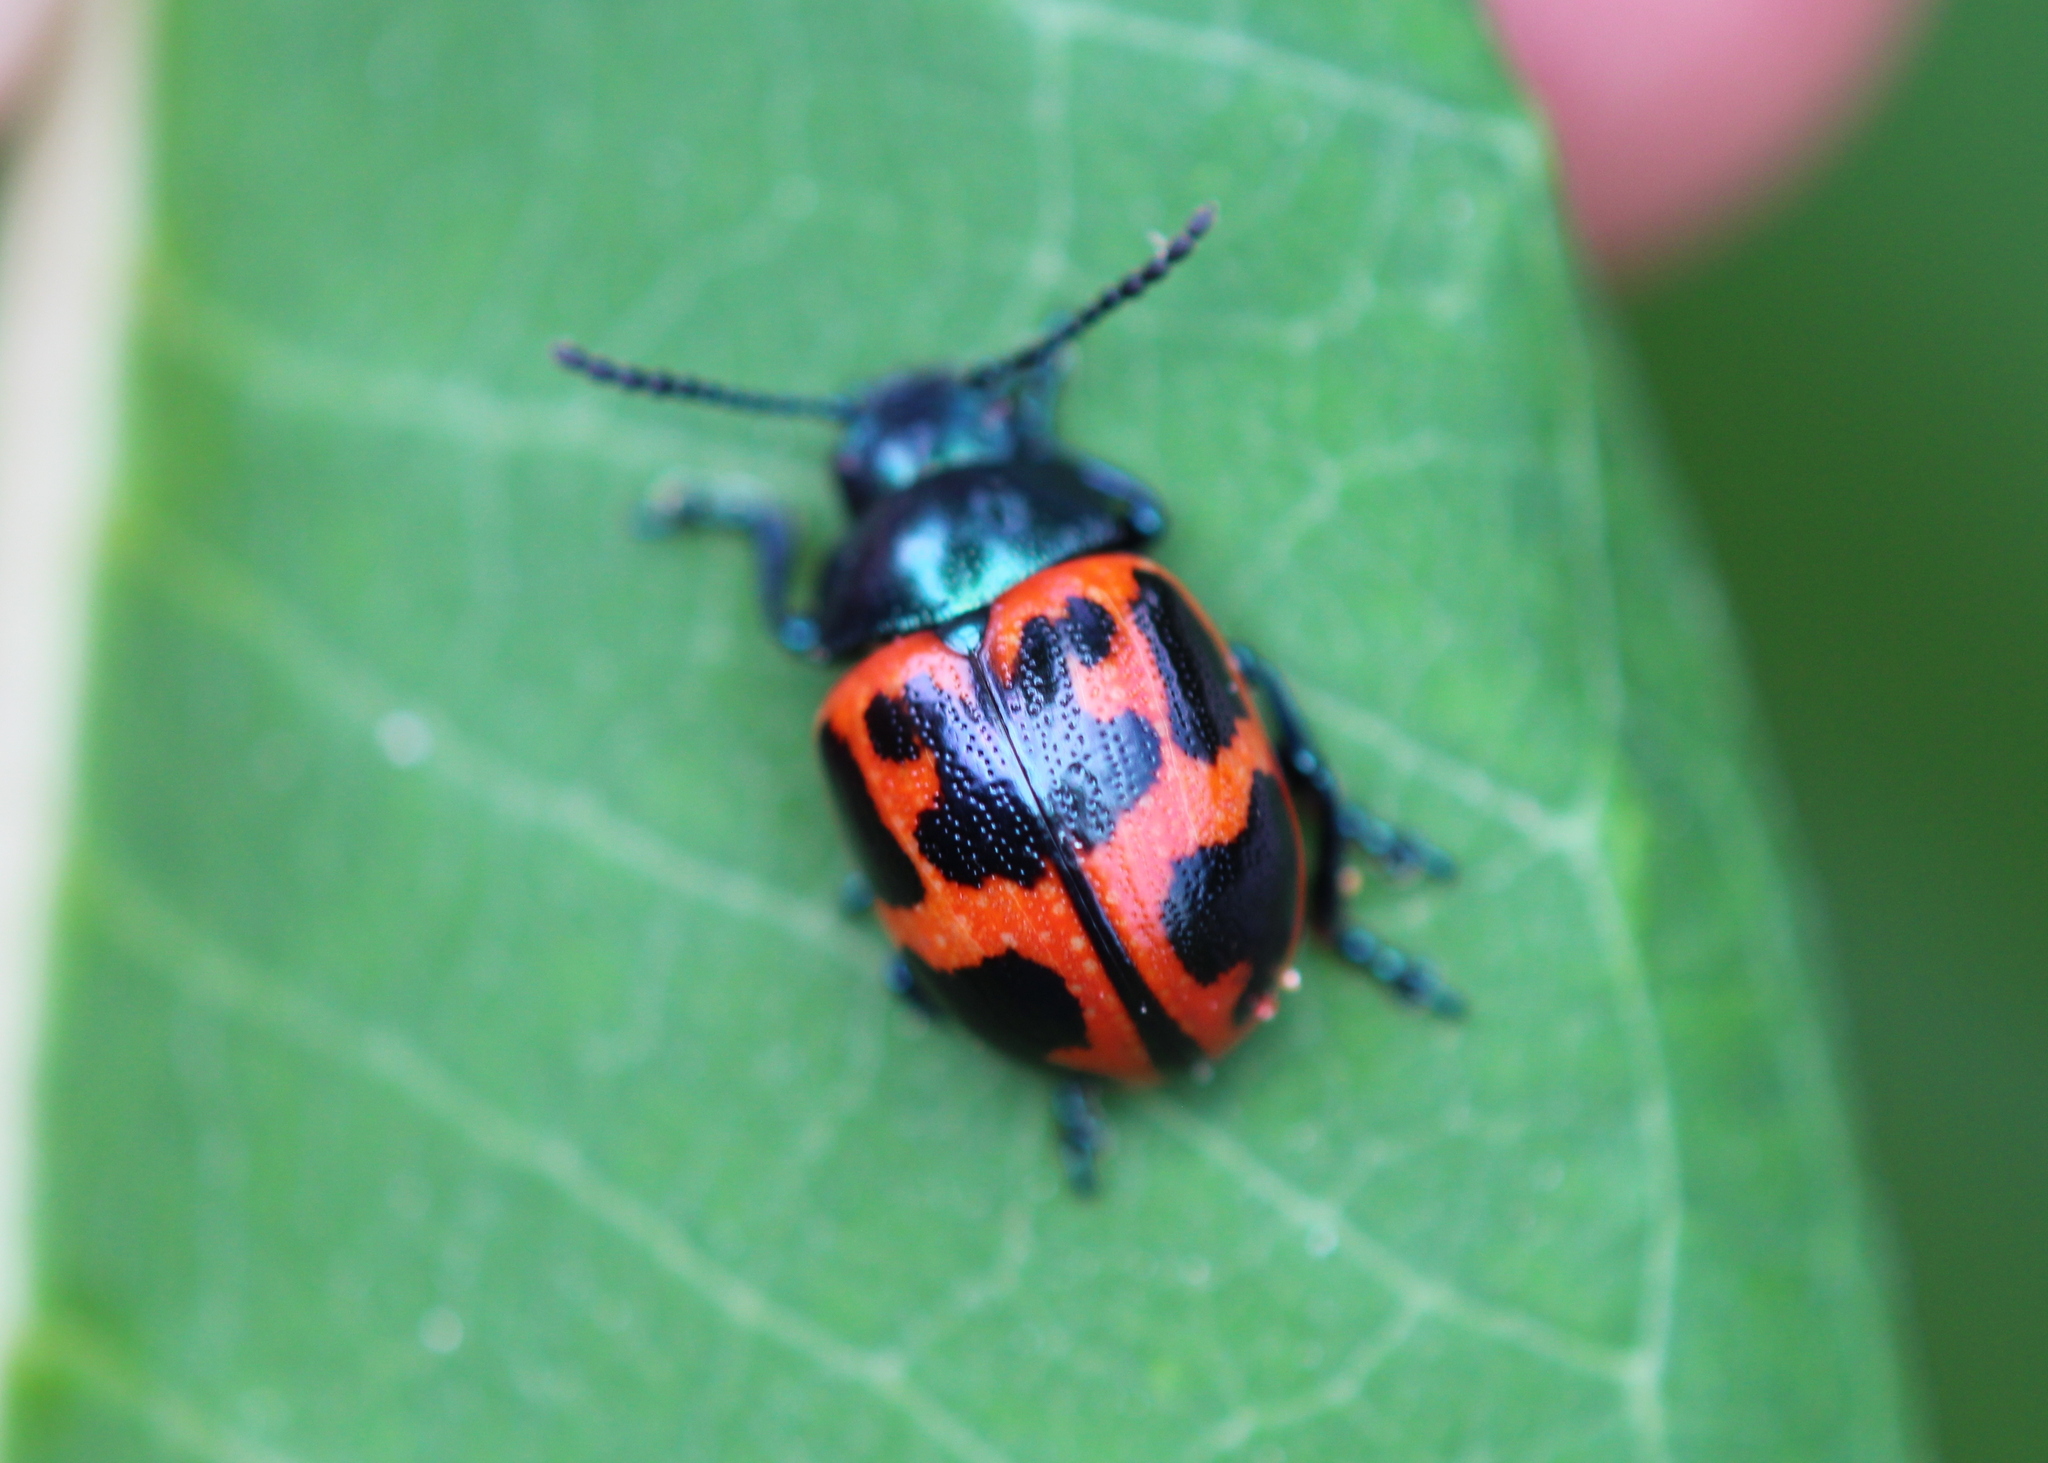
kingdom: Animalia
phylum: Arthropoda
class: Insecta
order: Coleoptera
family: Chrysomelidae
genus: Labidomera
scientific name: Labidomera clivicollis
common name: Swamp milkweed leaf beetle
